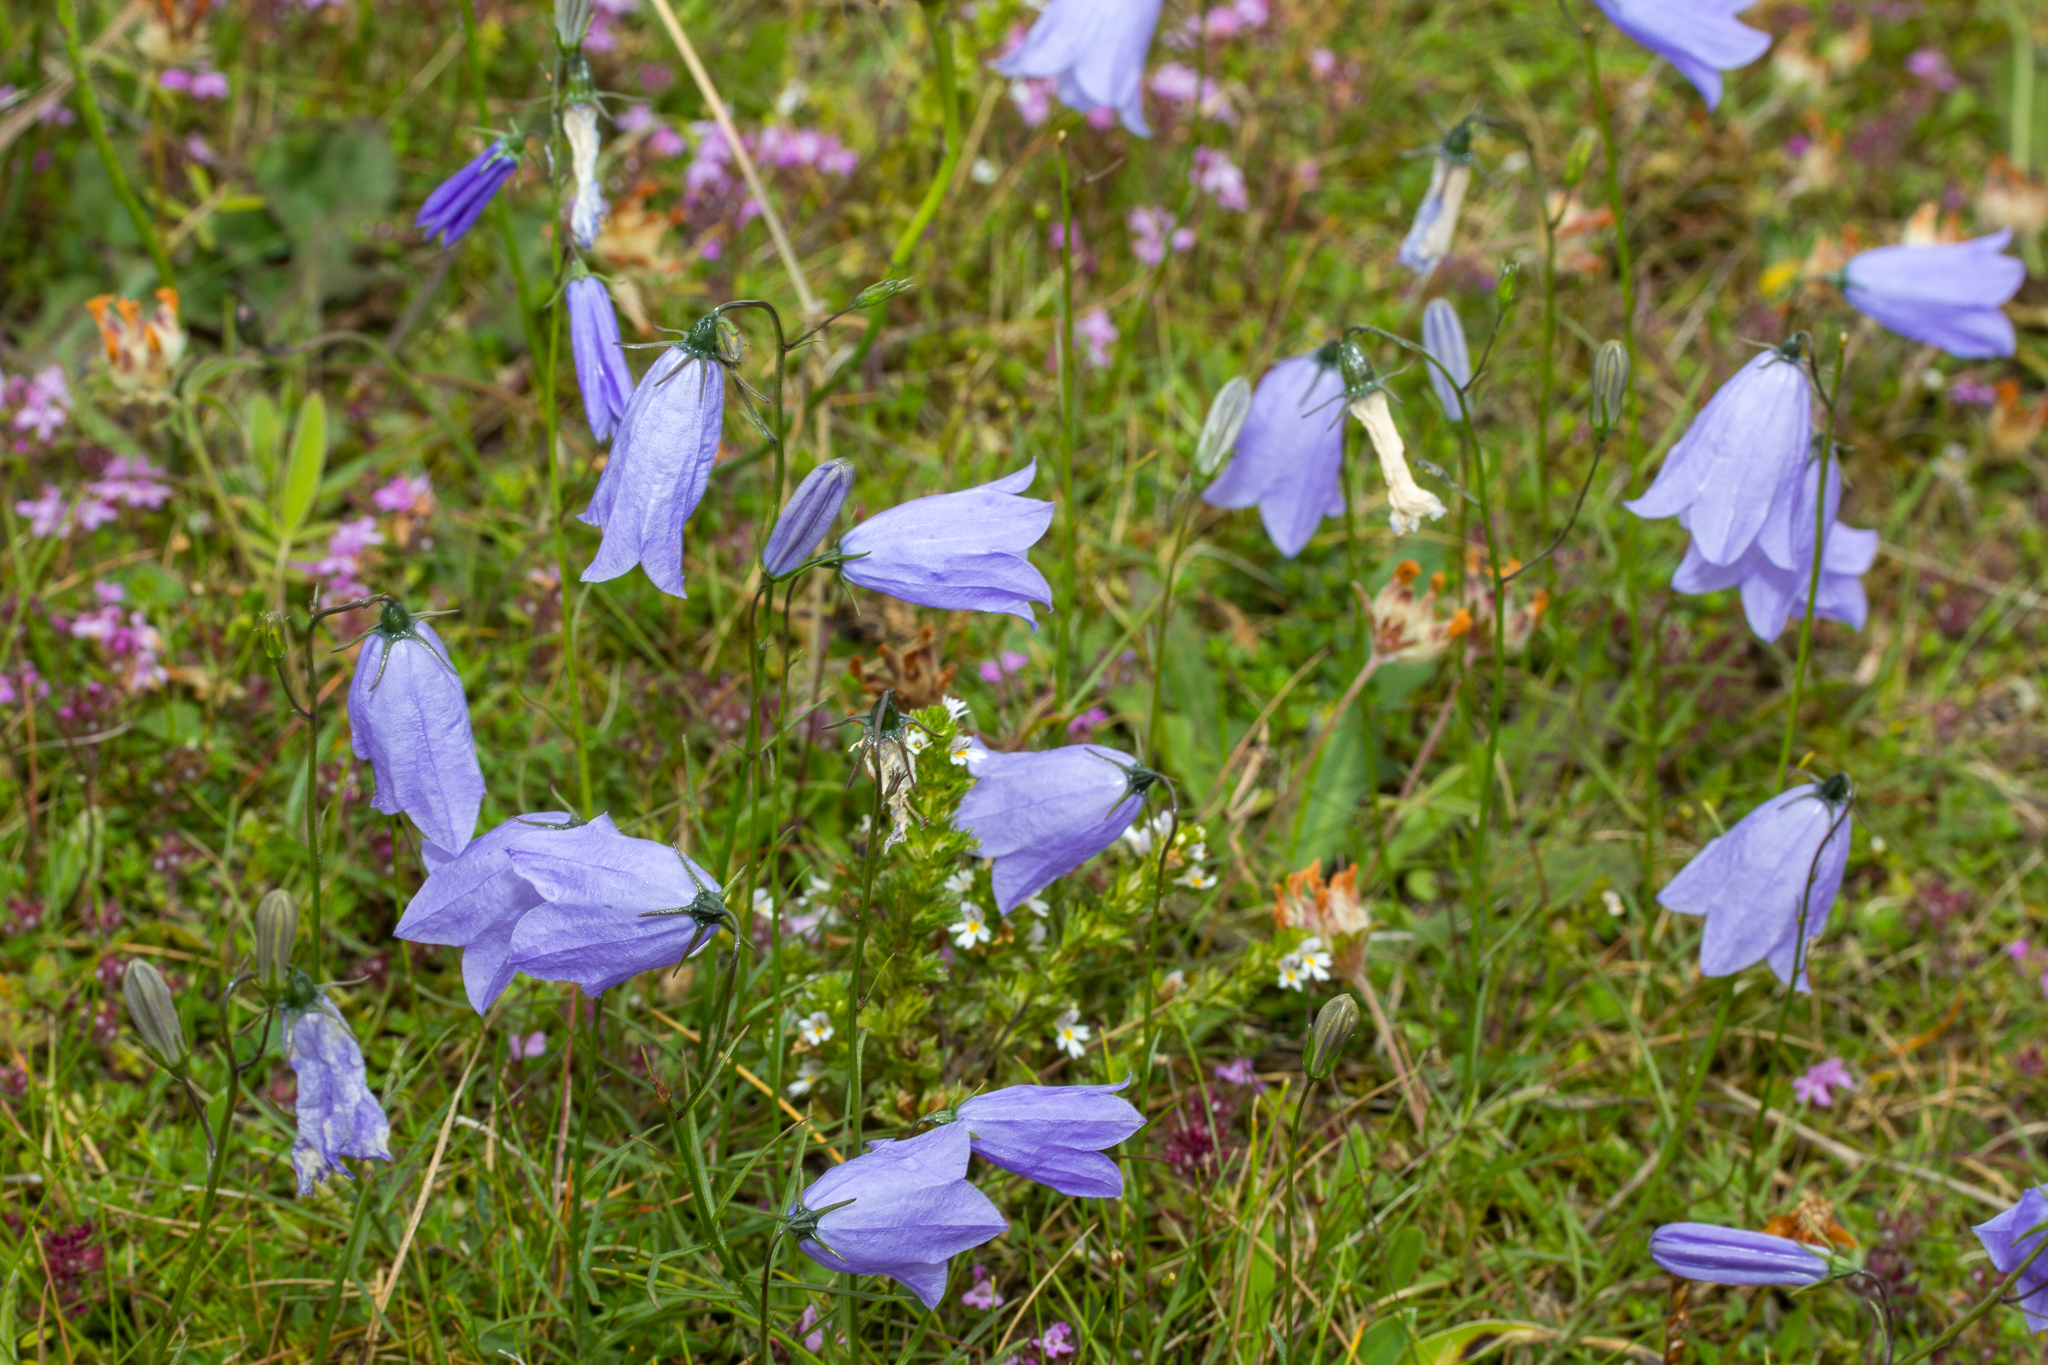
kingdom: Plantae
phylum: Tracheophyta
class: Magnoliopsida
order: Asterales
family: Campanulaceae
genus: Campanula
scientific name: Campanula rotundifolia
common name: Harebell
